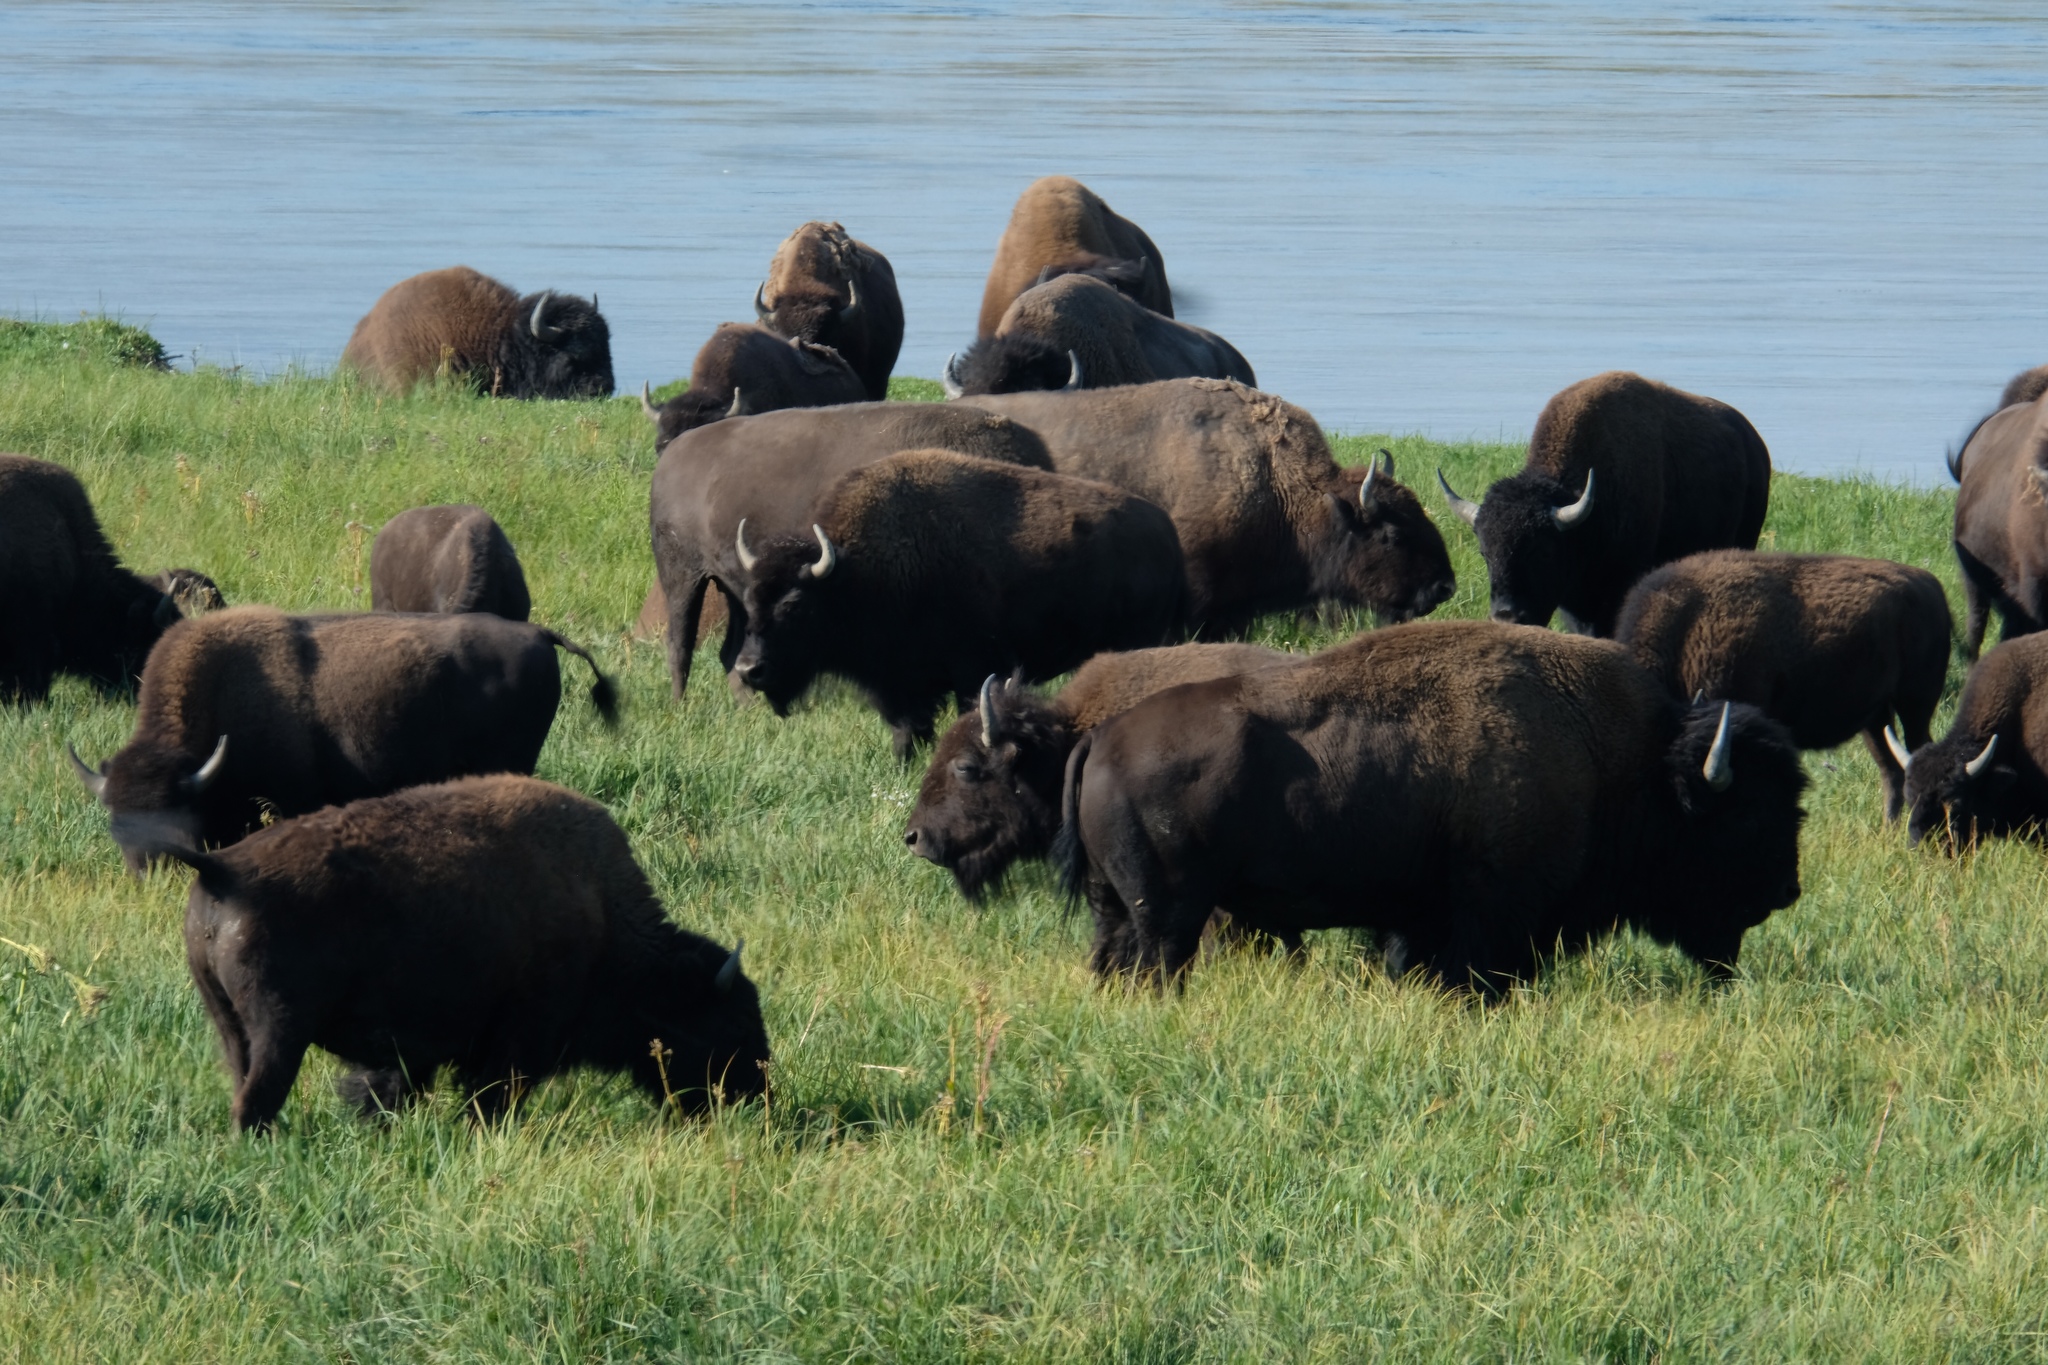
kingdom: Animalia
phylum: Chordata
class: Mammalia
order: Artiodactyla
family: Bovidae
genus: Bison
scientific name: Bison bison
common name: American bison
